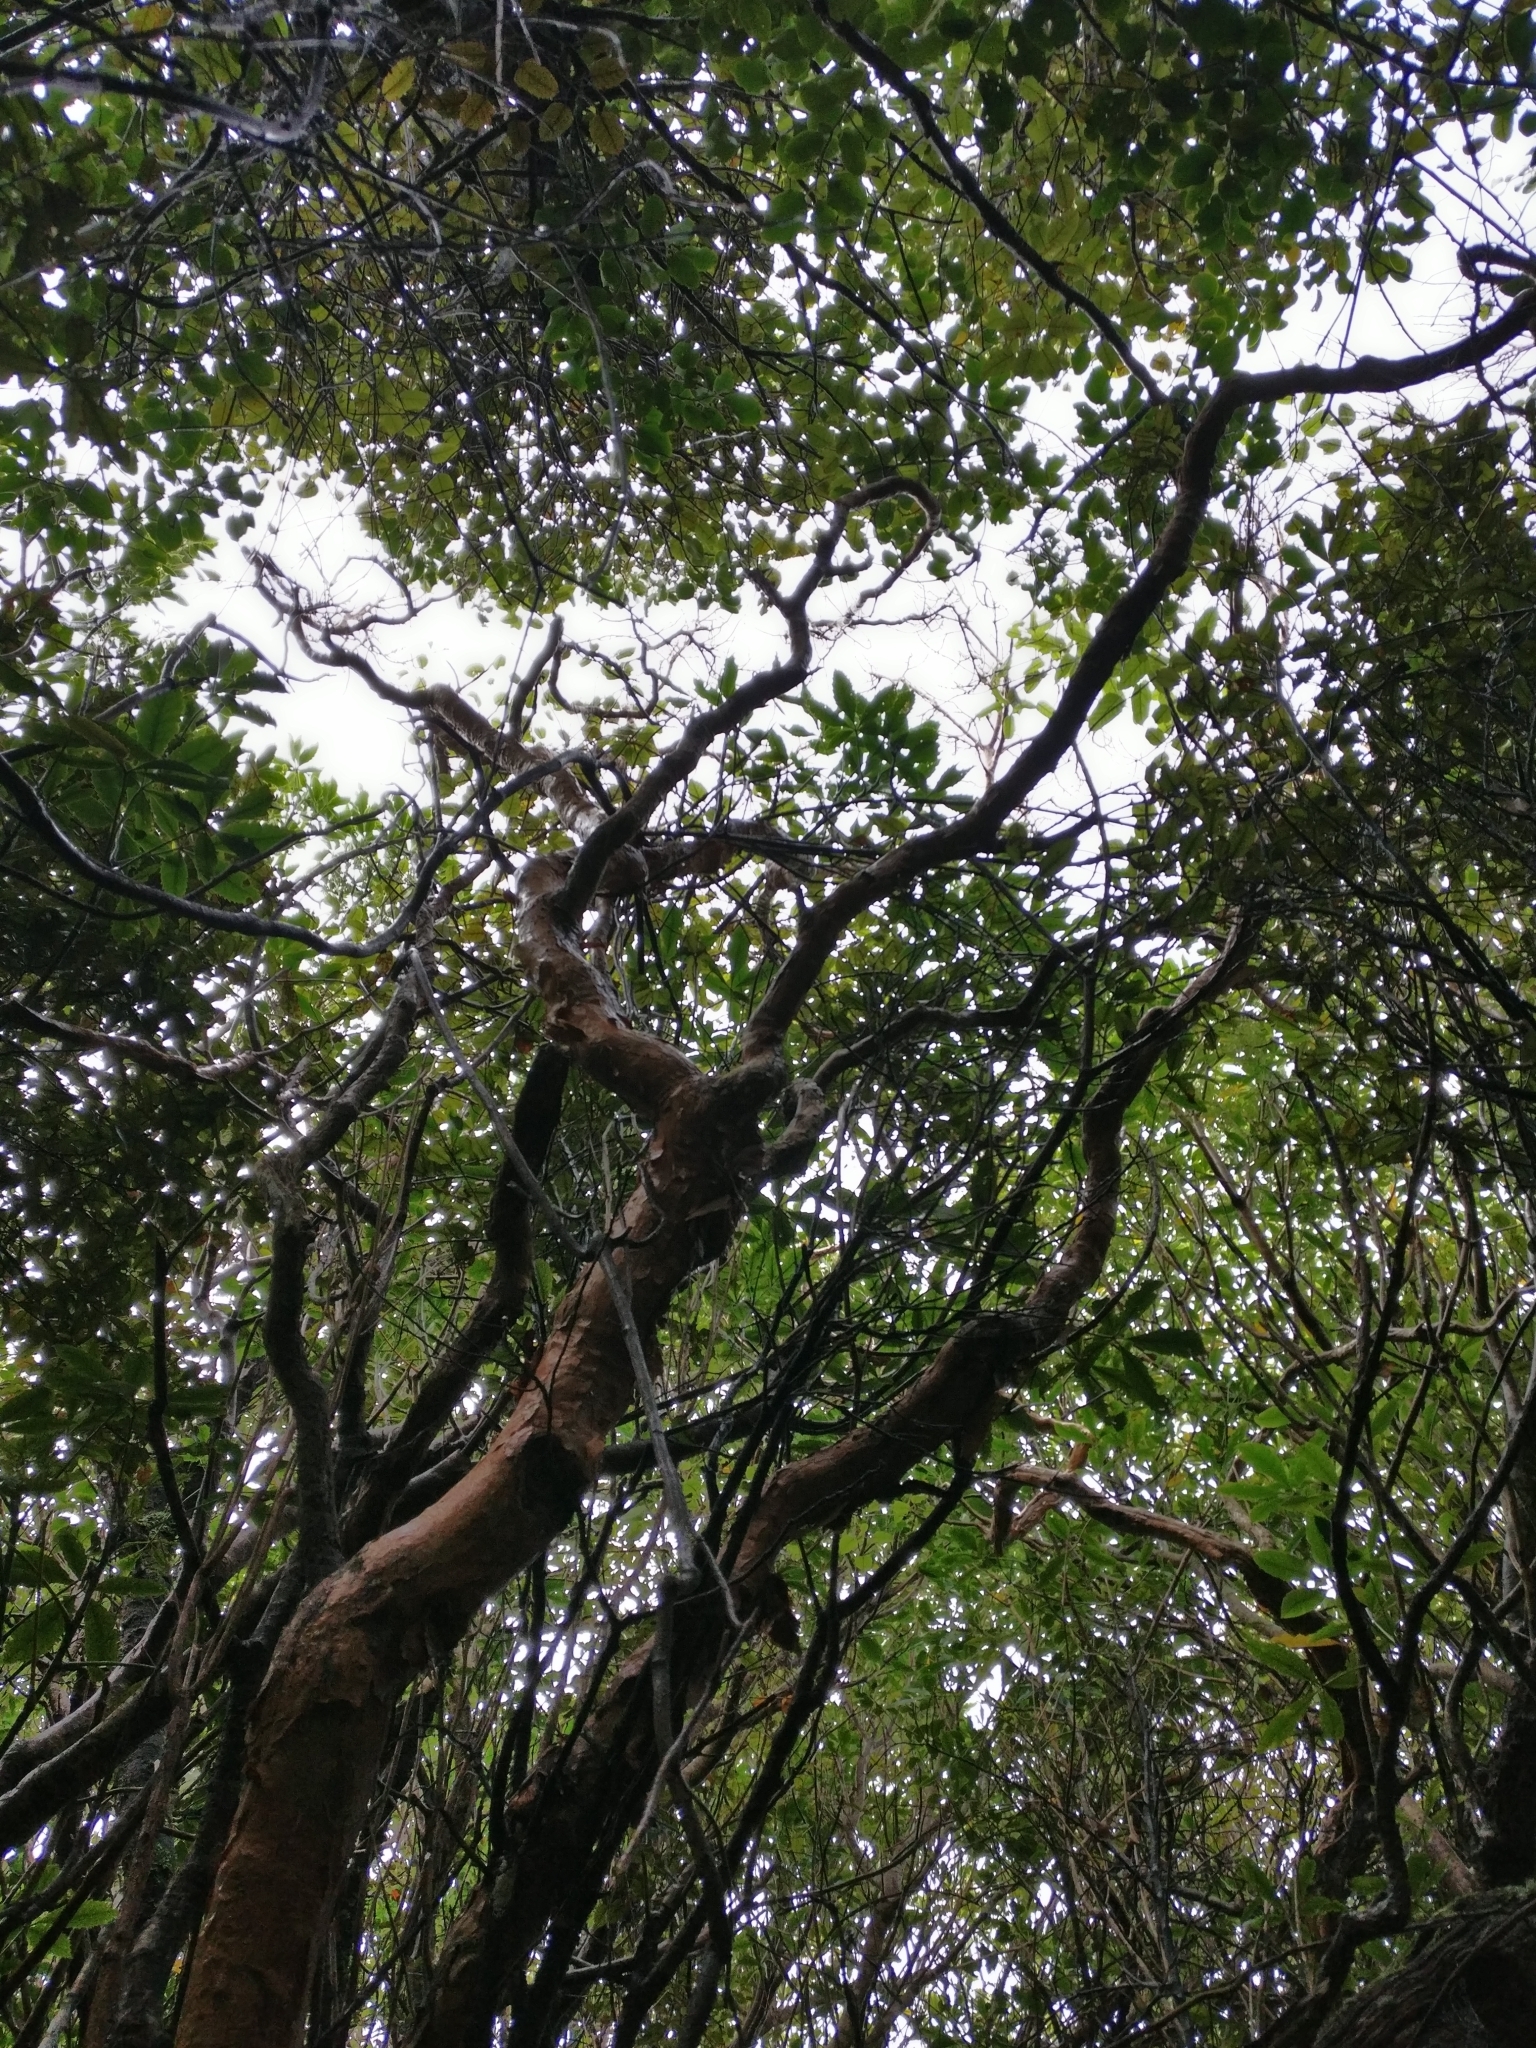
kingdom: Plantae
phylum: Tracheophyta
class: Magnoliopsida
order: Myrtales
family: Onagraceae
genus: Fuchsia
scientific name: Fuchsia excorticata
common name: Tree fuchsia
